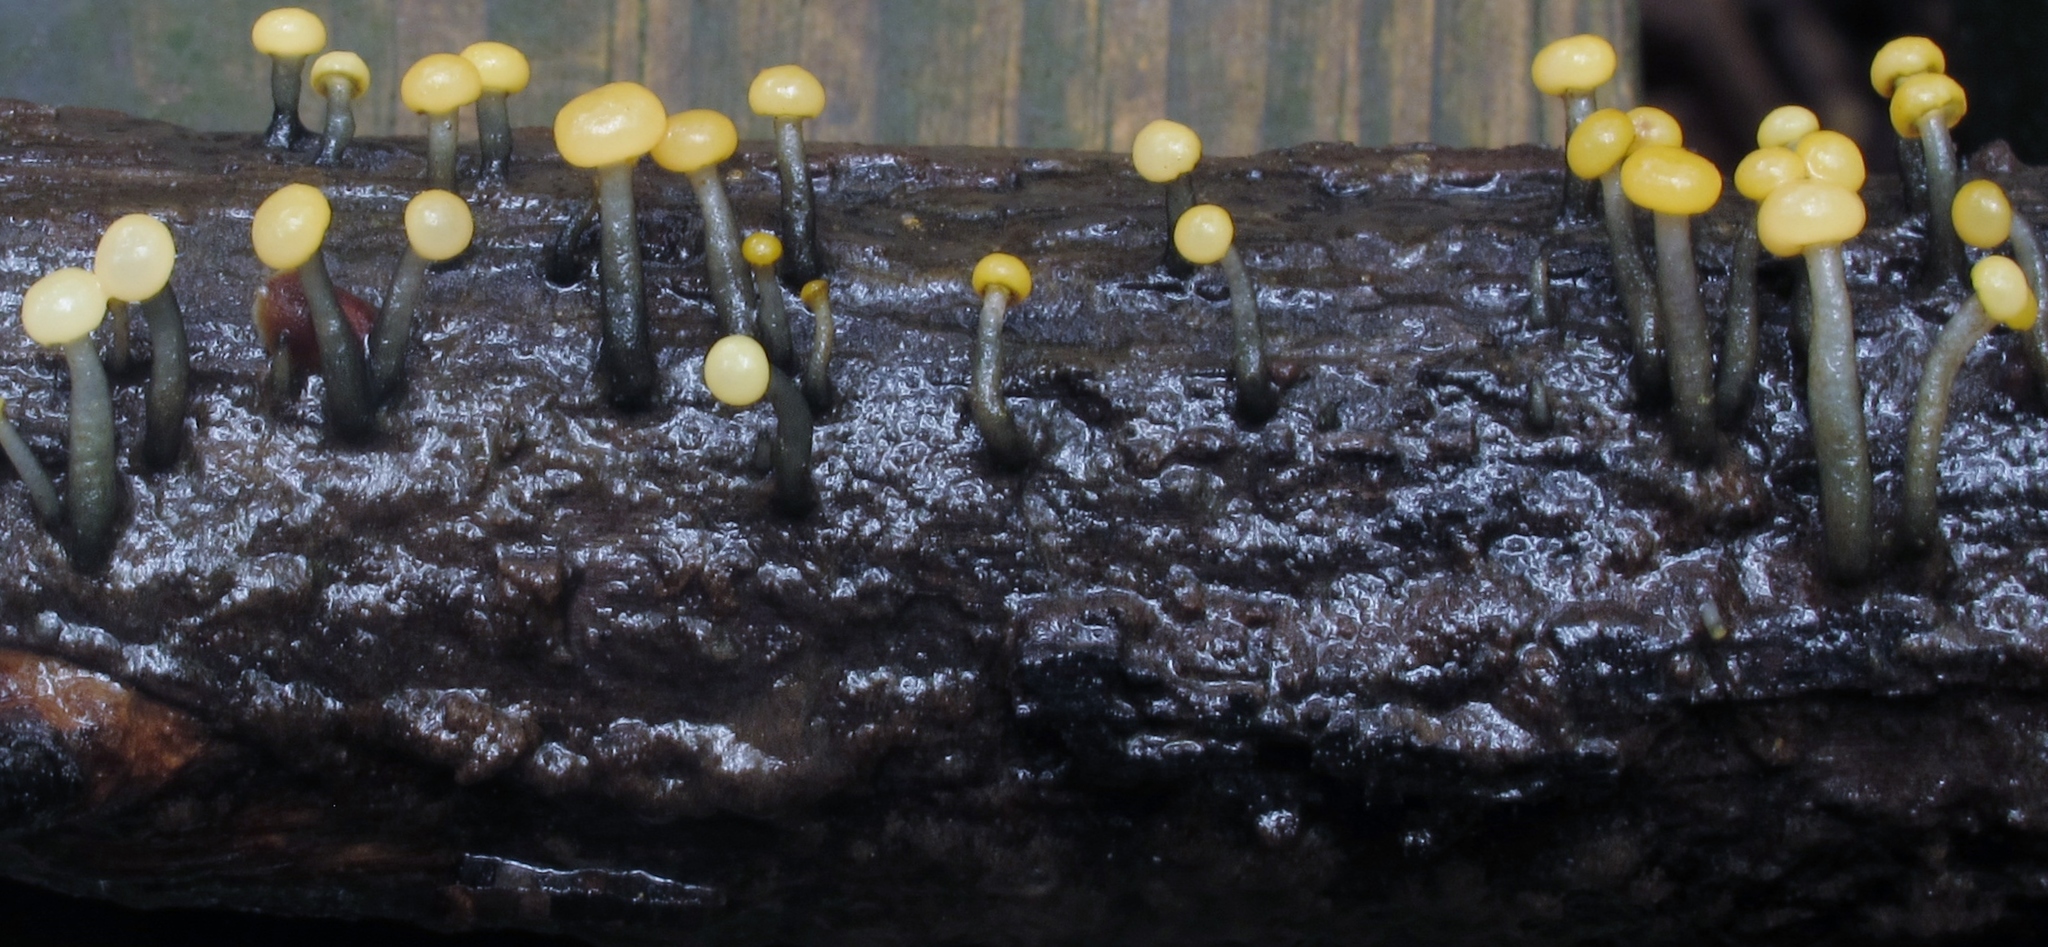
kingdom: Fungi
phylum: Ascomycota
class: Leotiomycetes
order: Helotiales
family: Vibrisseaceae
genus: Vibrissea
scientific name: Vibrissea truncorum
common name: Stream beacon
